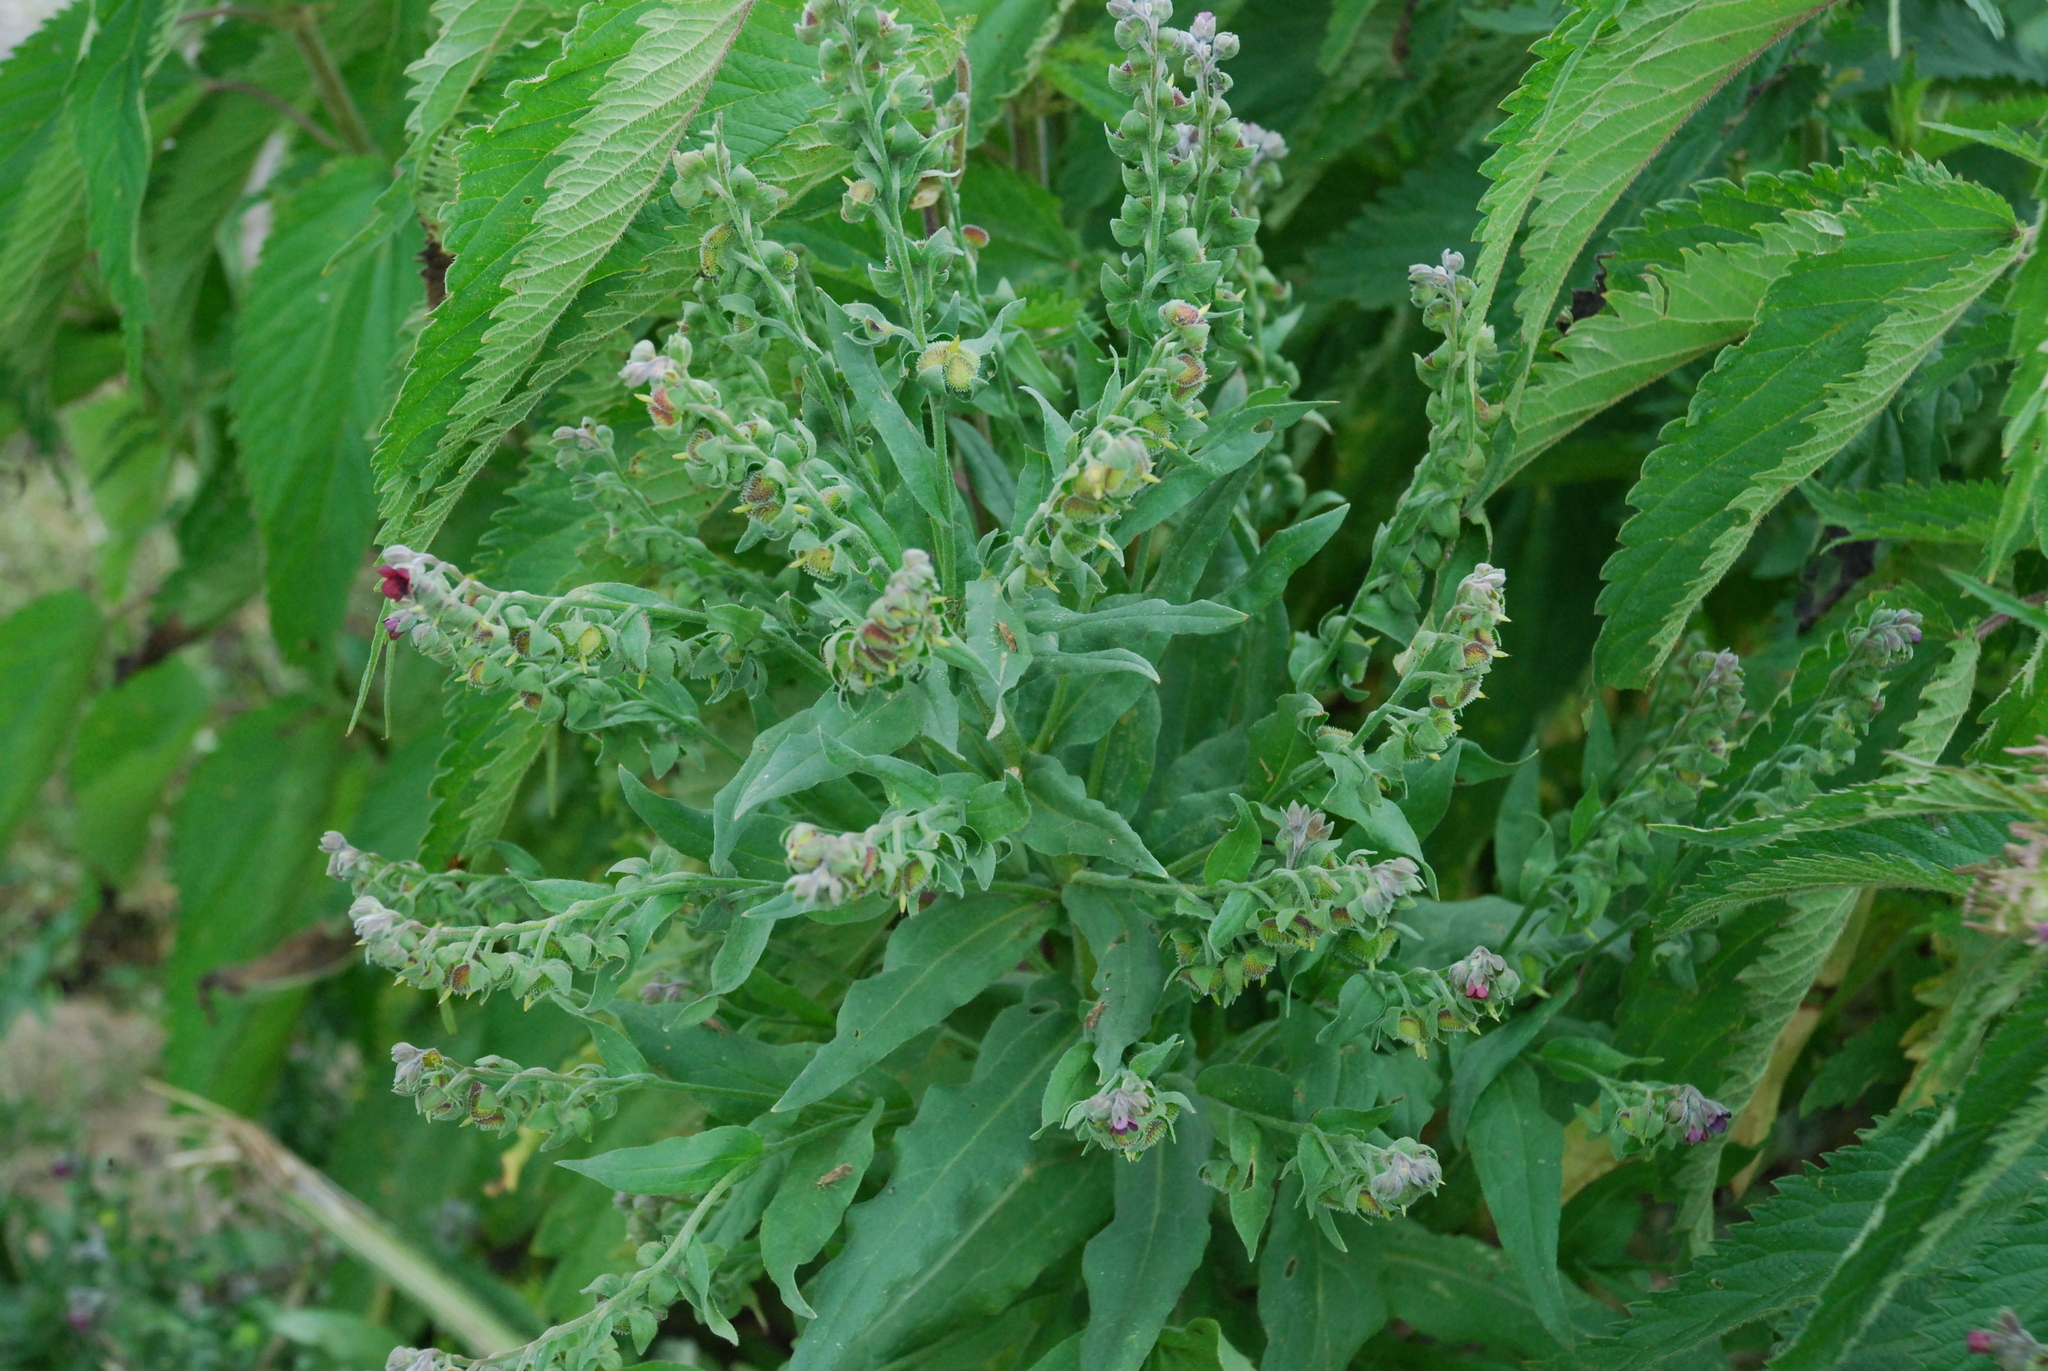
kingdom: Plantae
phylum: Tracheophyta
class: Magnoliopsida
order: Boraginales
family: Boraginaceae
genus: Cynoglossum
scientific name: Cynoglossum officinale
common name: Hound's-tongue
